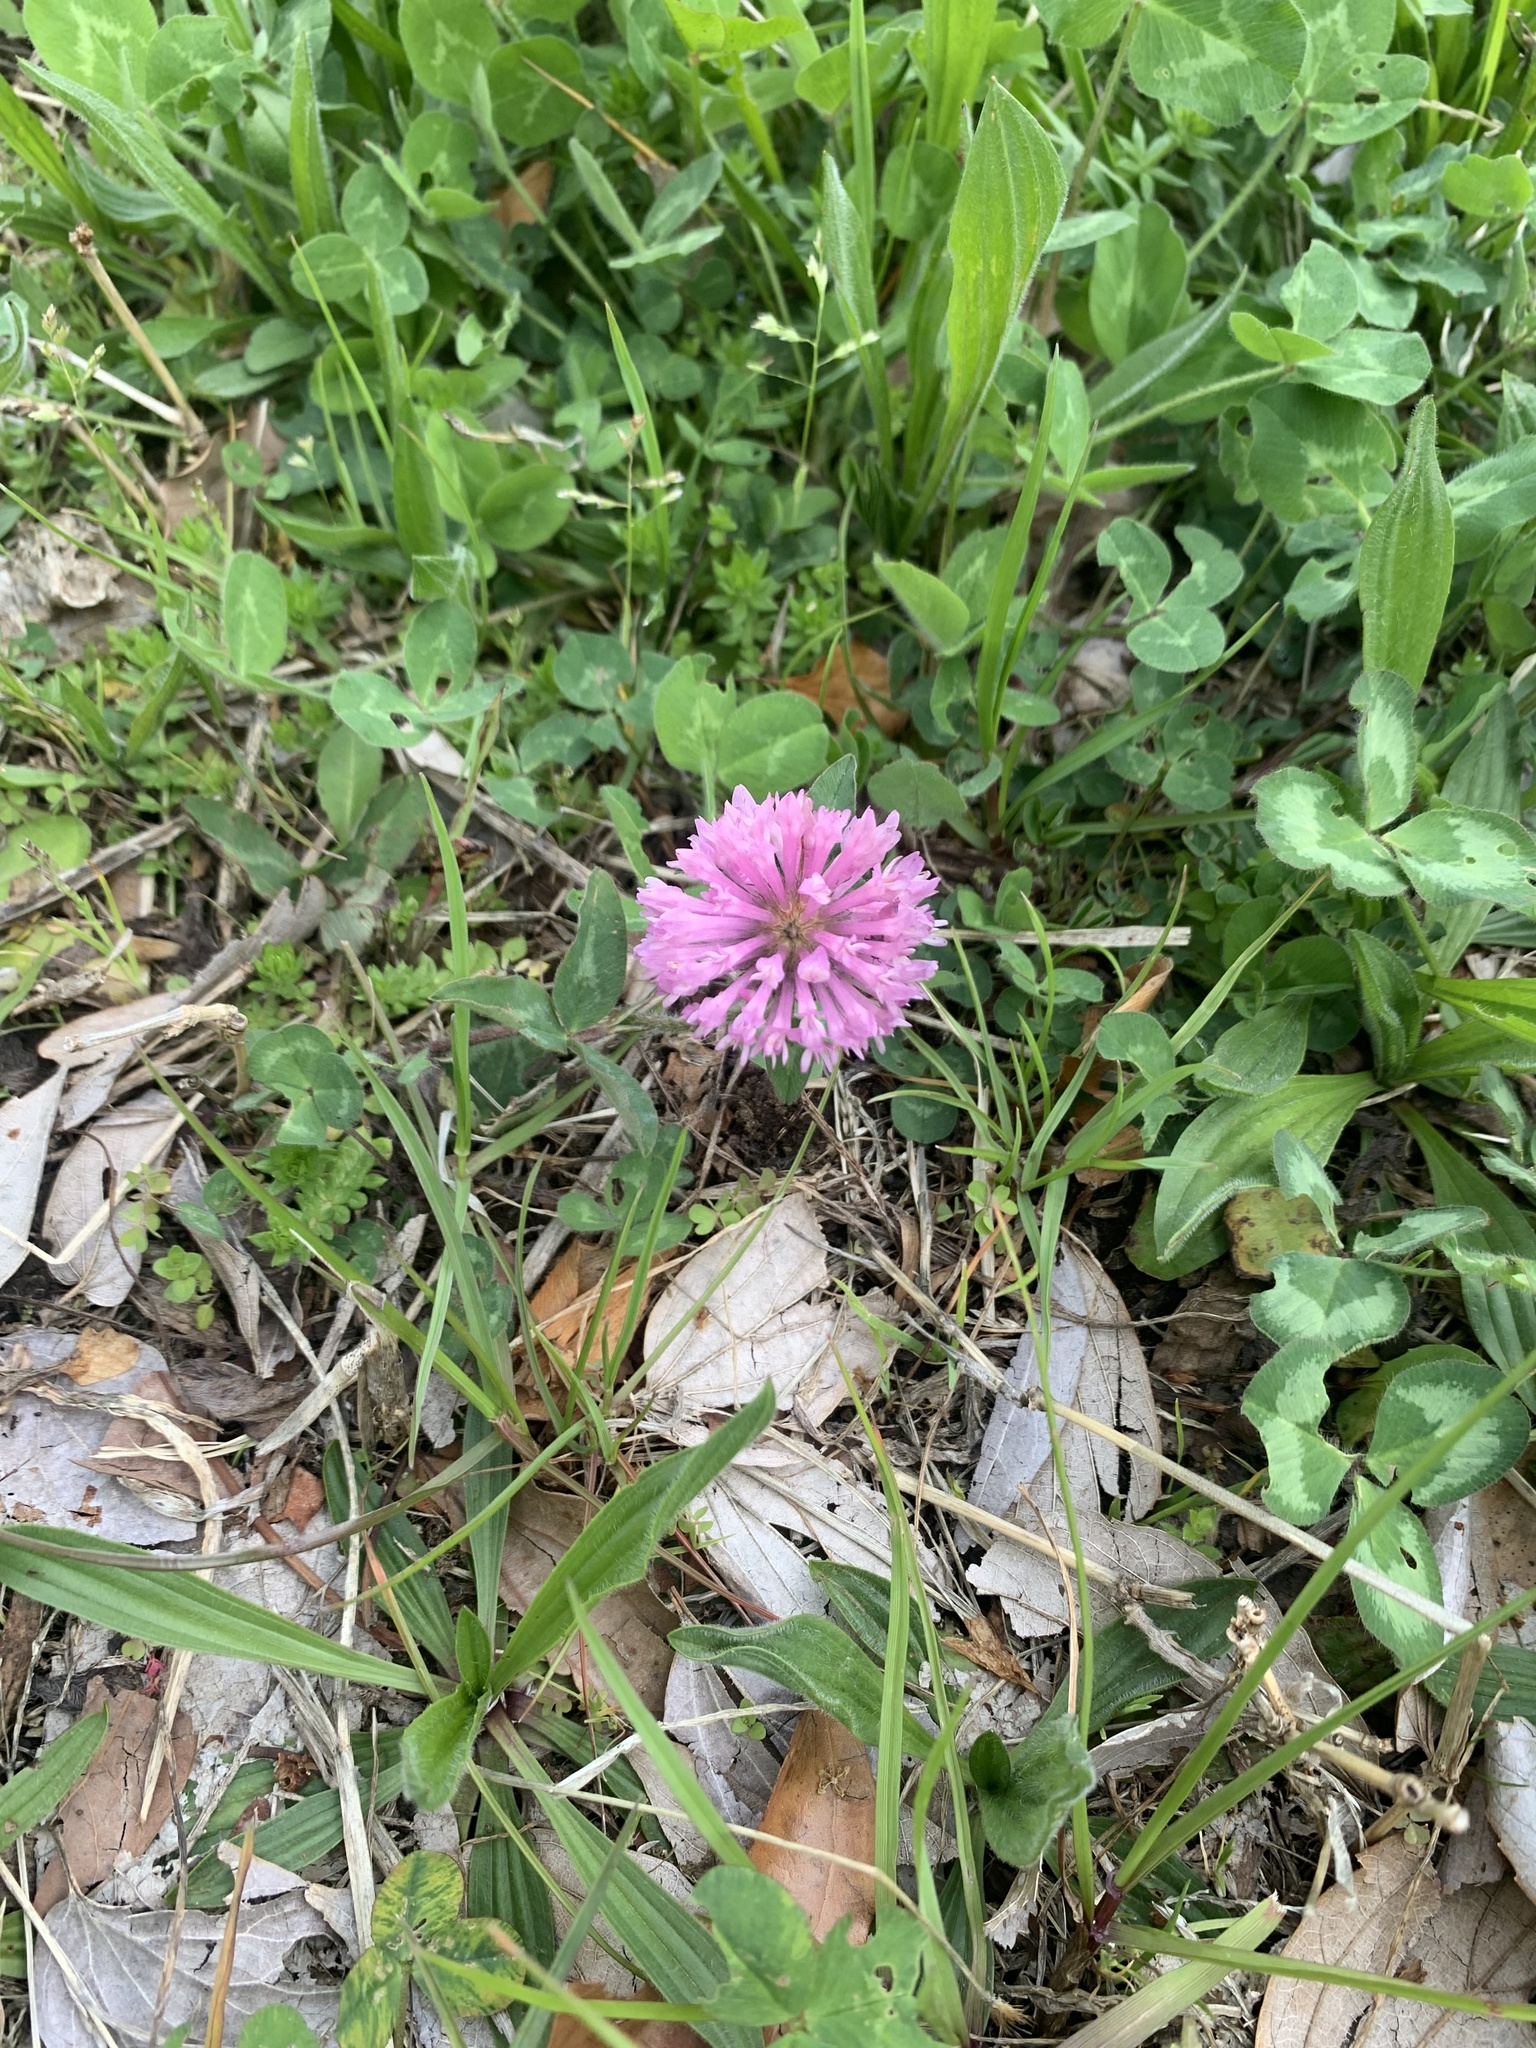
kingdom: Plantae
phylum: Tracheophyta
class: Magnoliopsida
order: Fabales
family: Fabaceae
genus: Trifolium
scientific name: Trifolium pratense
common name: Red clover
